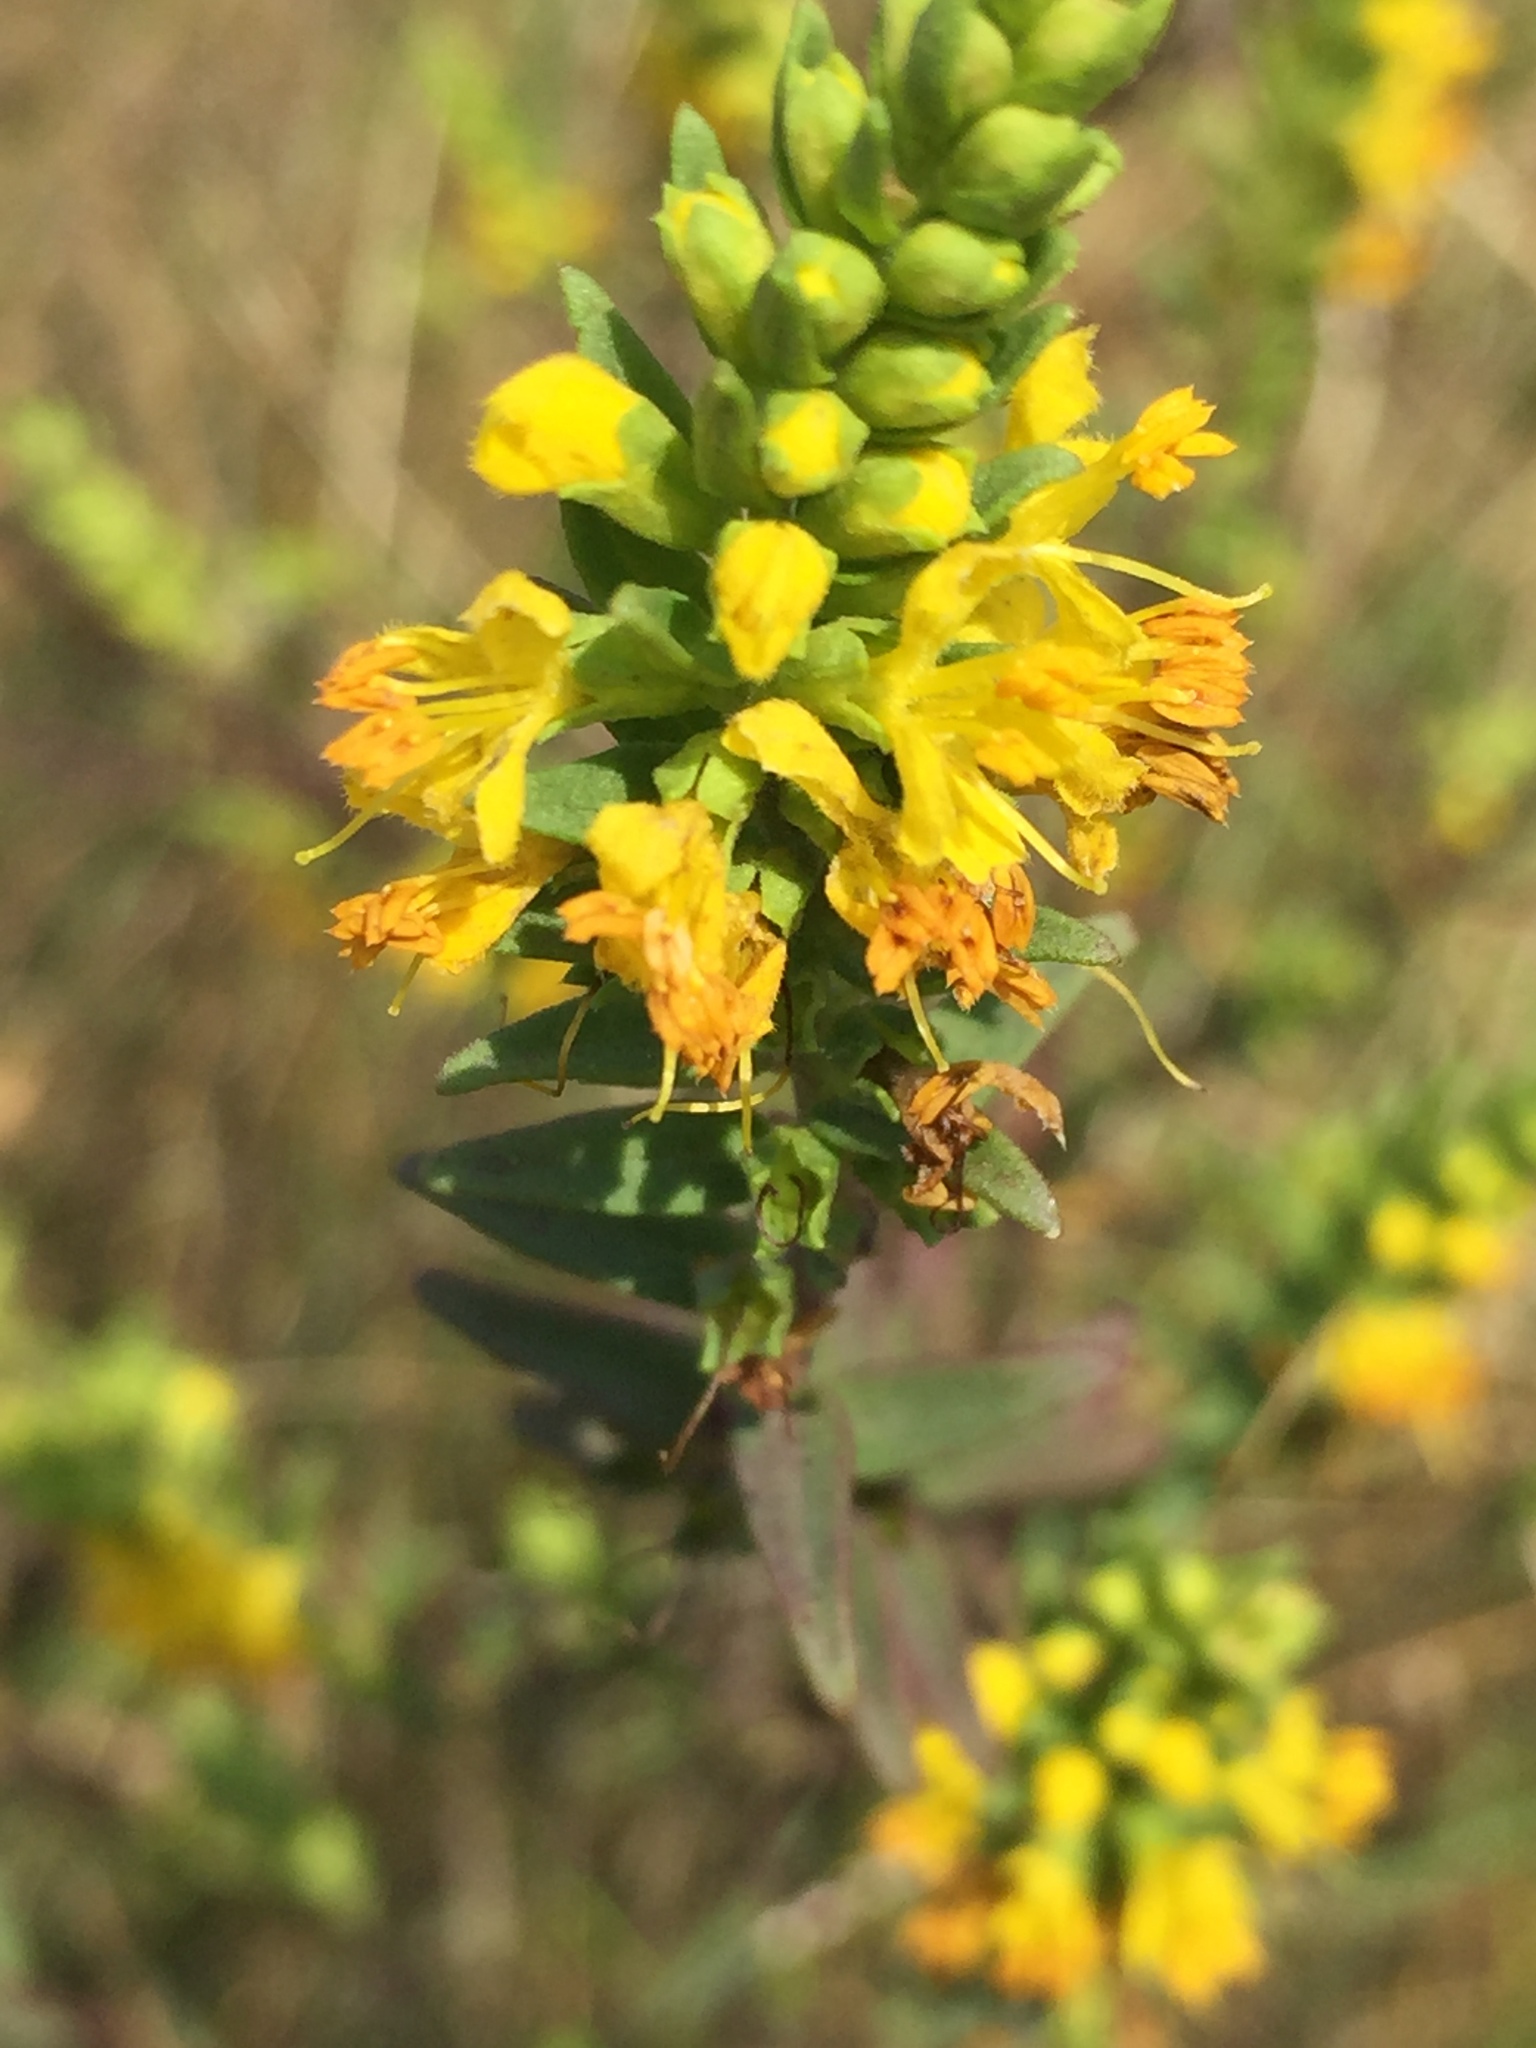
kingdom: Plantae
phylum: Tracheophyta
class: Magnoliopsida
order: Lamiales
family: Orobanchaceae
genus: Odontites
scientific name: Odontites luteus
